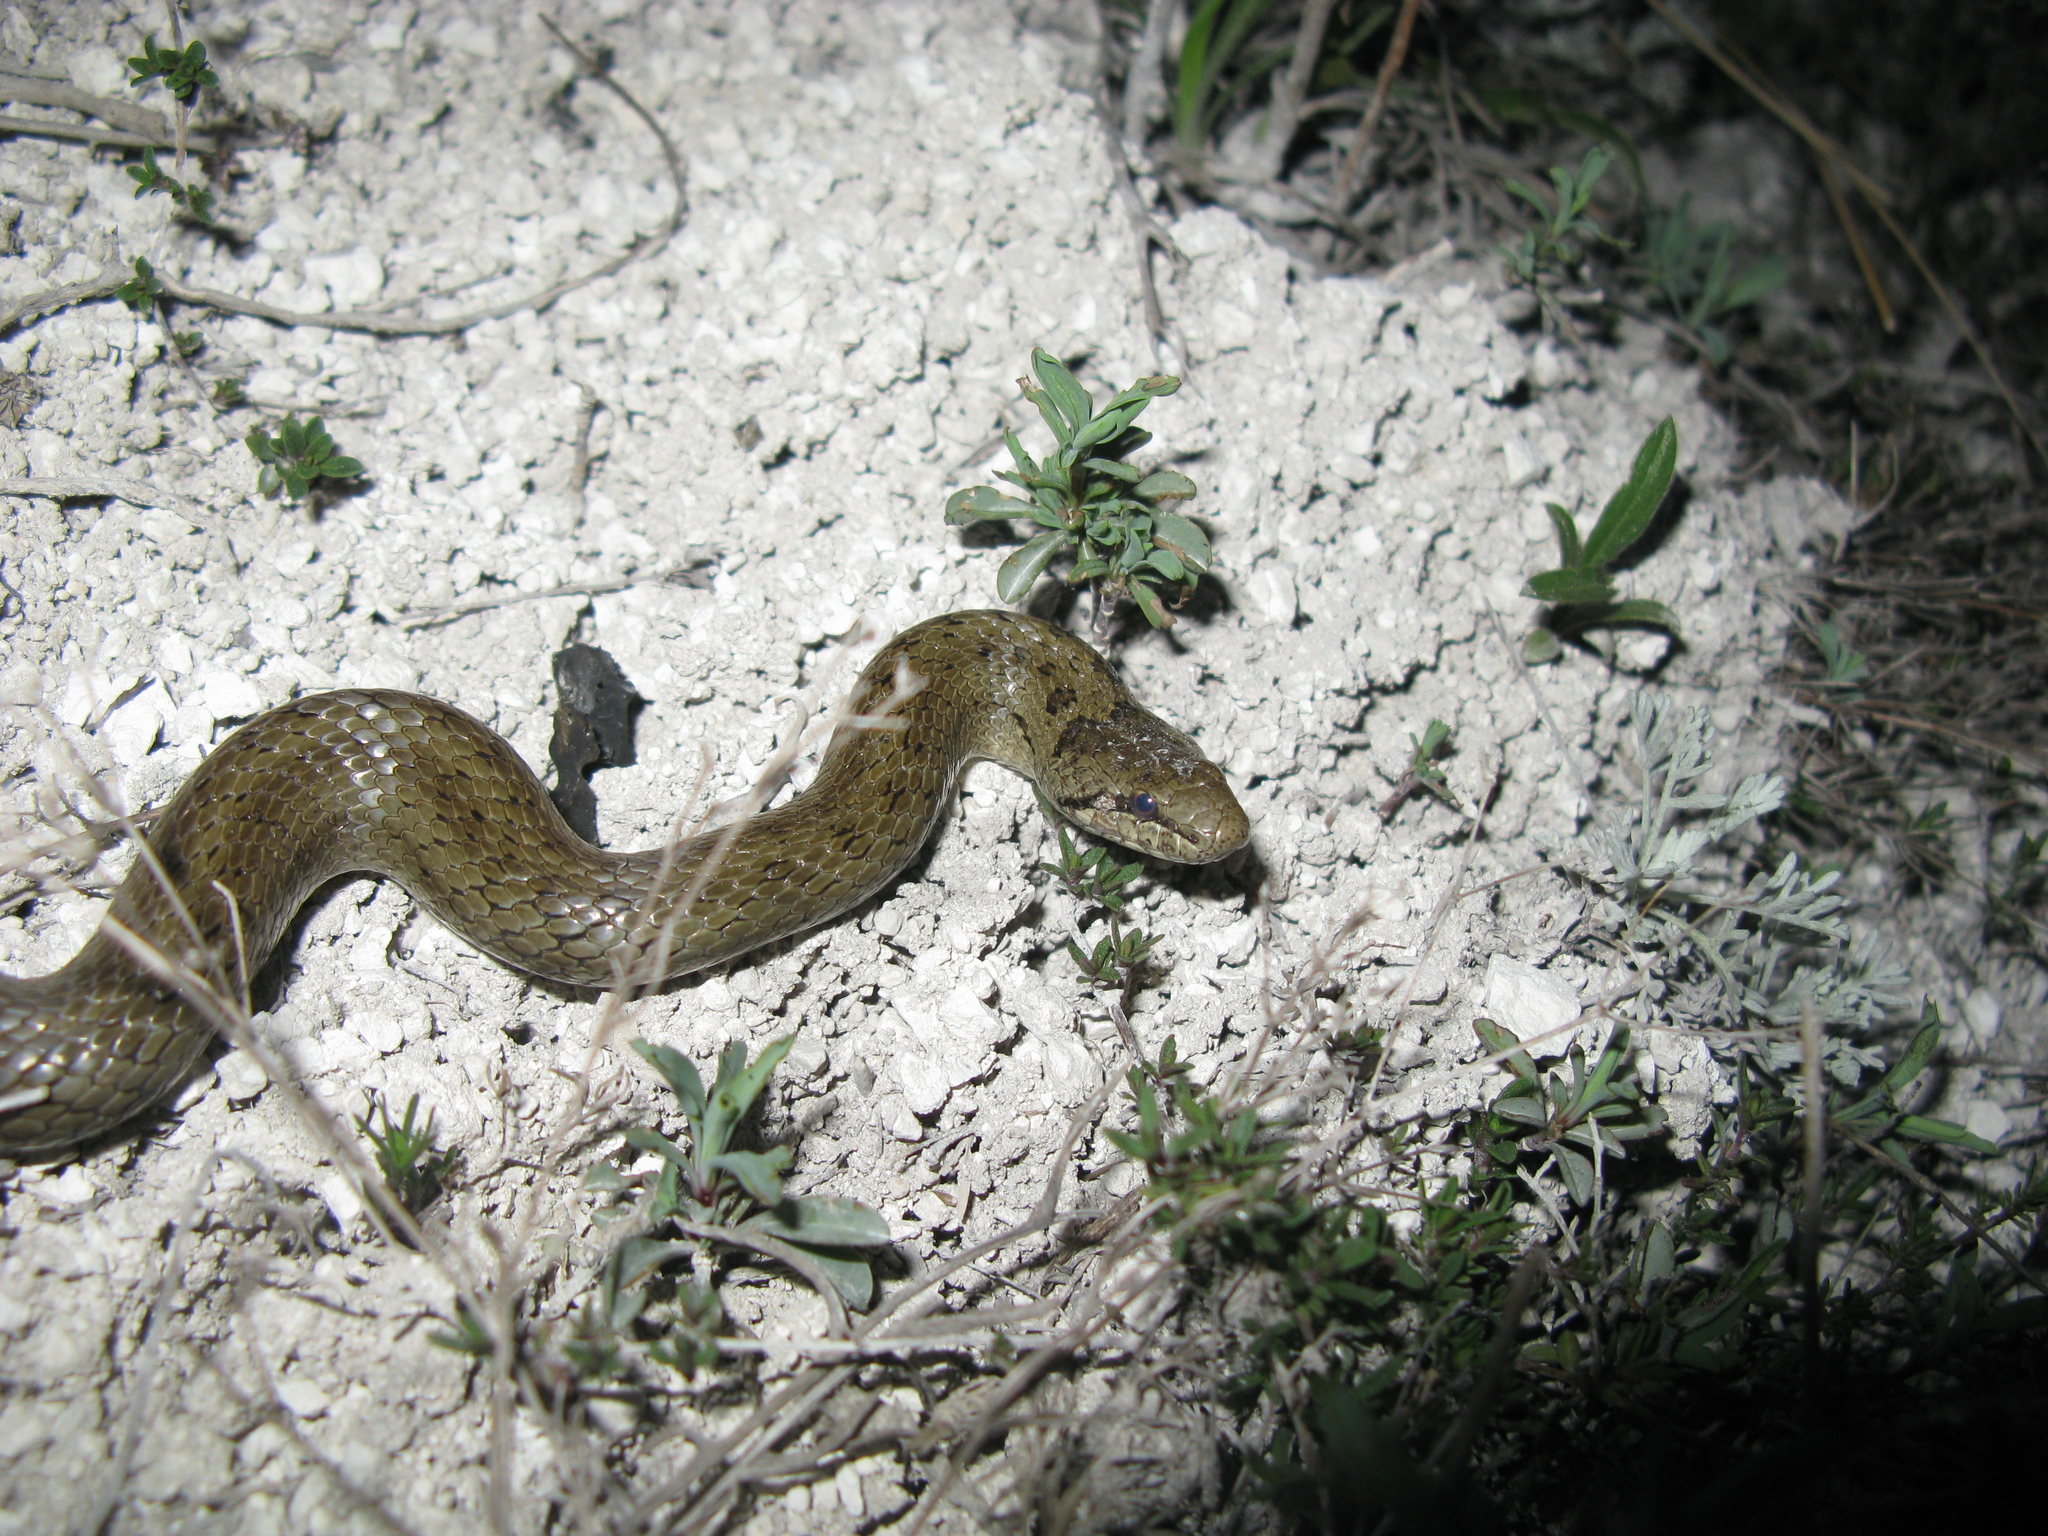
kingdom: Animalia
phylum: Chordata
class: Squamata
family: Colubridae
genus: Coronella
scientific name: Coronella austriaca
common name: Smooth snake
